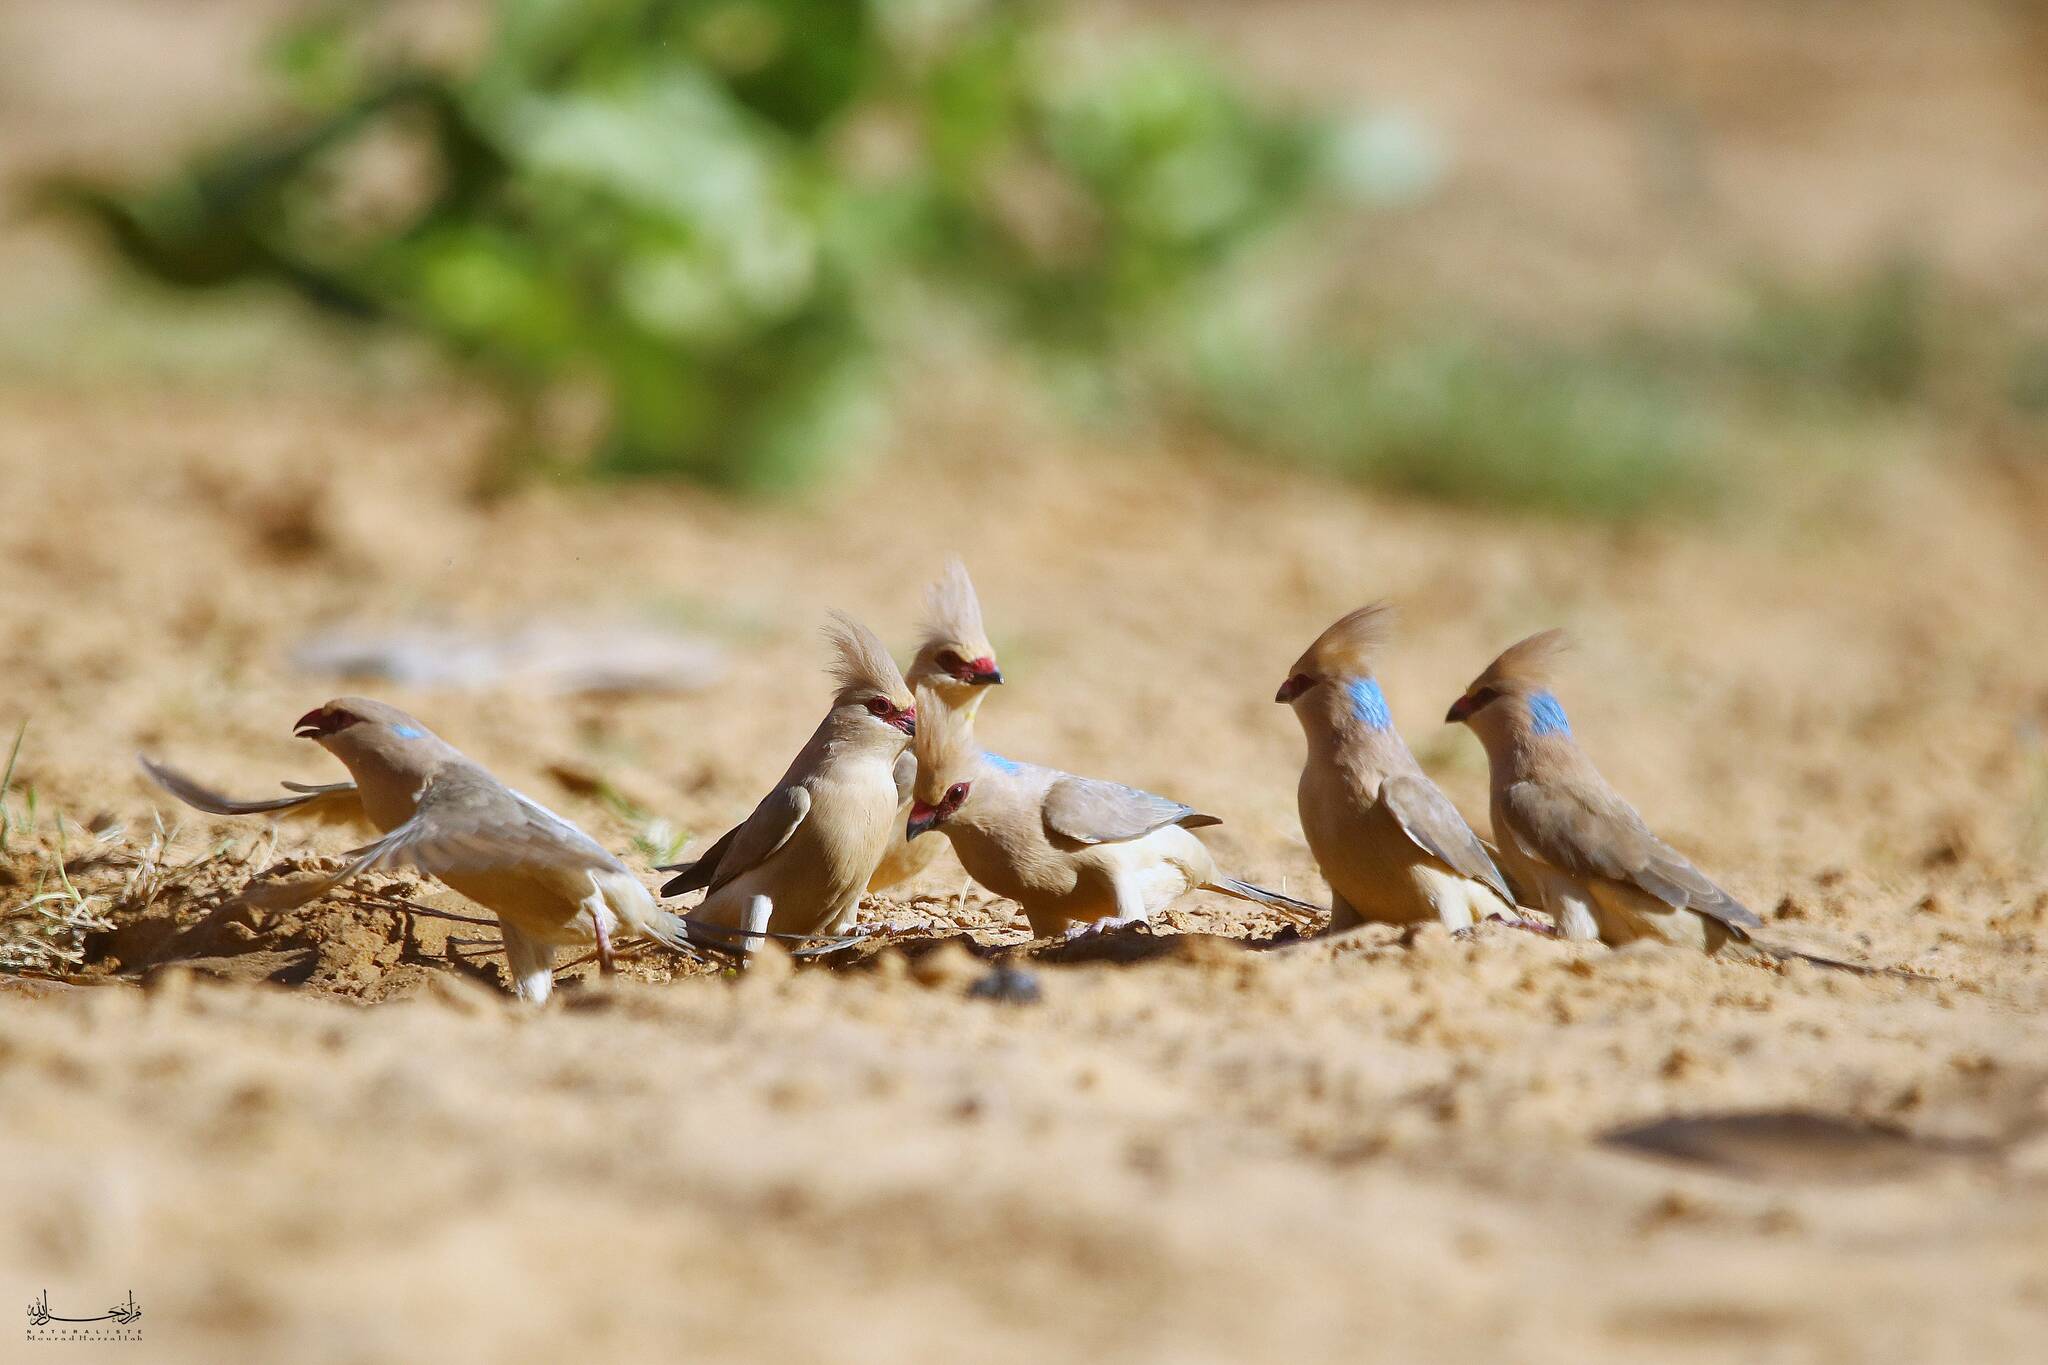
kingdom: Animalia
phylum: Chordata
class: Aves
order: Coliiformes
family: Coliidae
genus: Urocolius
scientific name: Urocolius macrourus
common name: Blue-naped mousebird
